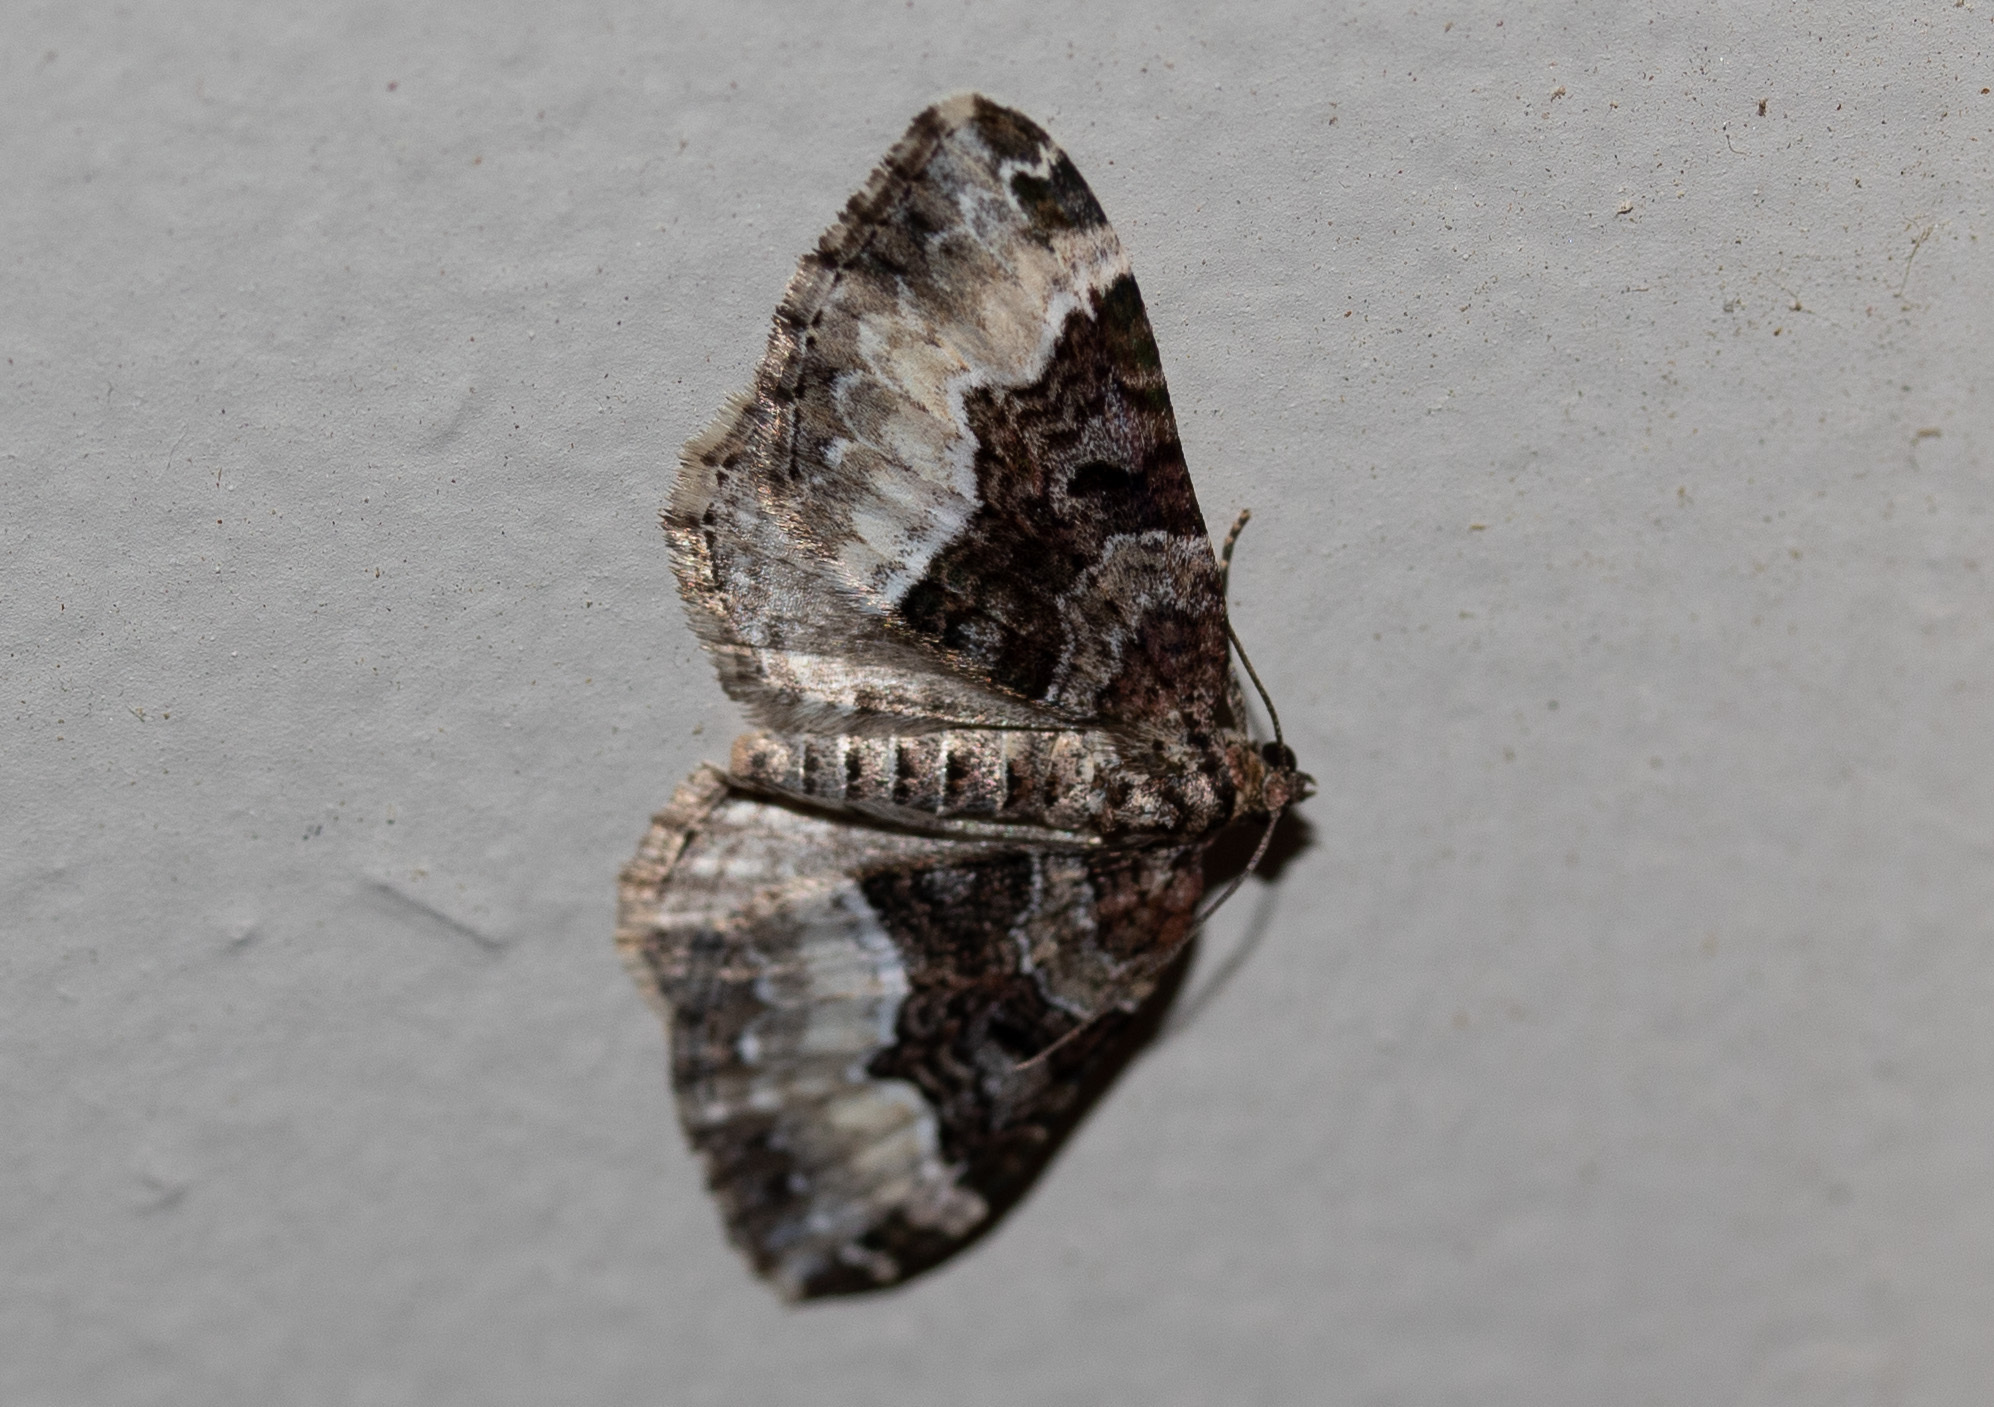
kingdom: Animalia
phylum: Arthropoda
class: Insecta
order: Lepidoptera
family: Geometridae
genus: Euphyia
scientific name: Euphyia intermediata
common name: Sharp-angled carpet
